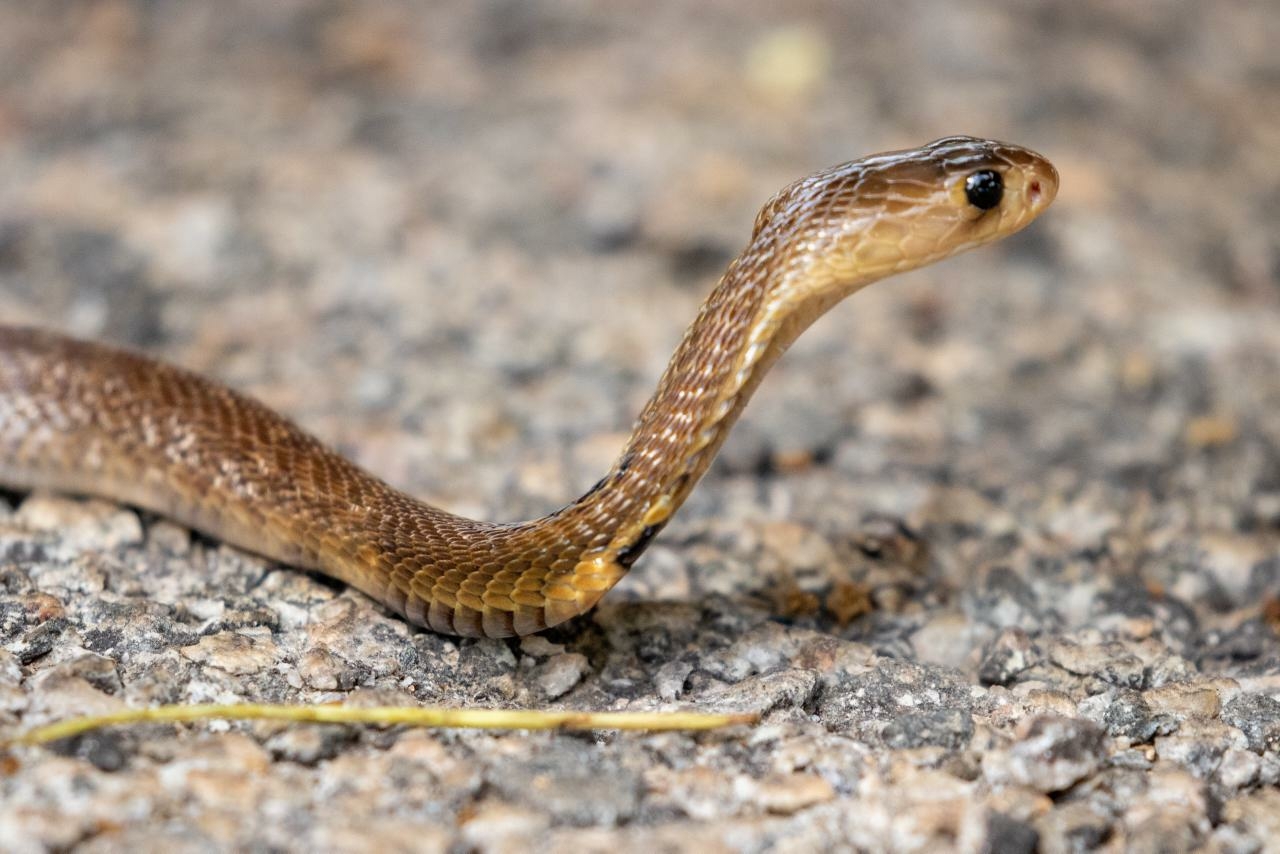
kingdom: Animalia
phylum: Chordata
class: Squamata
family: Elapidae
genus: Naja
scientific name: Naja naja
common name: Indian cobra
